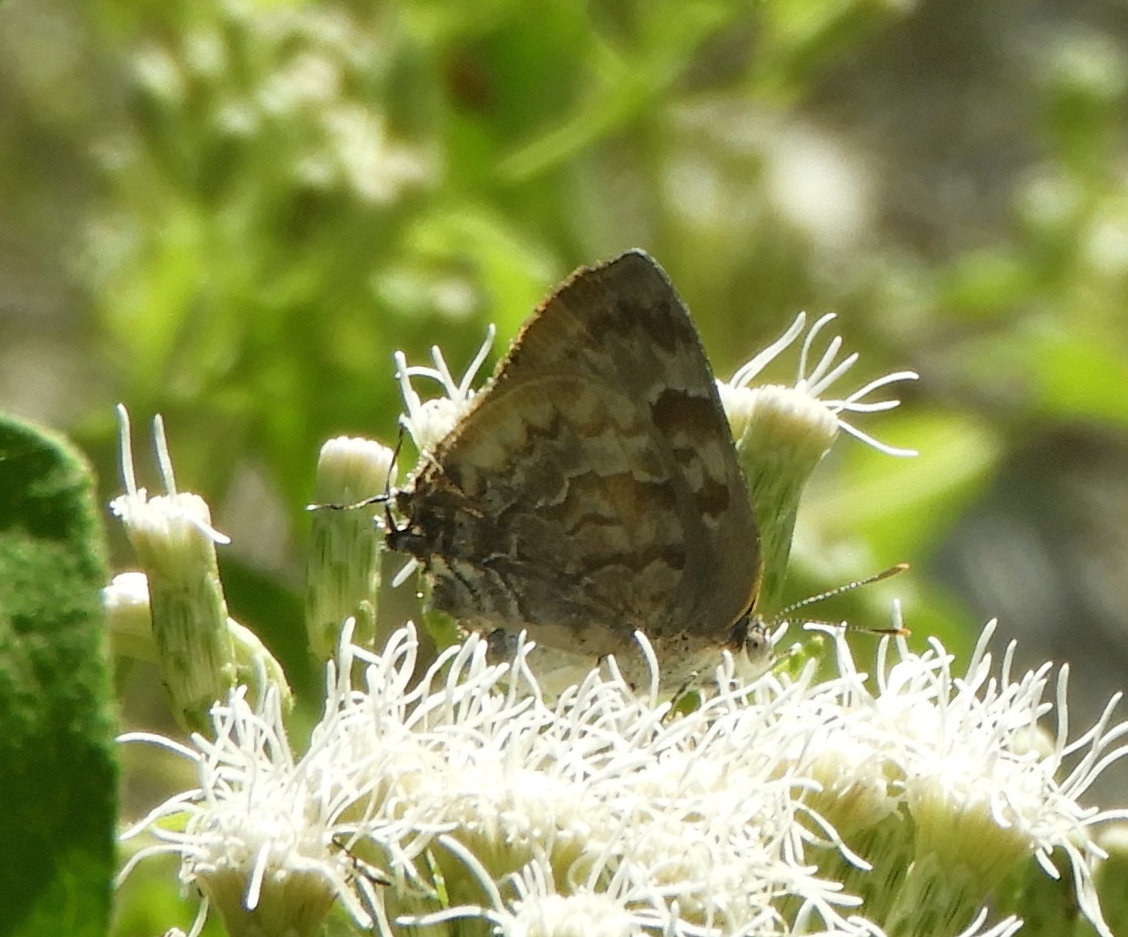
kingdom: Animalia
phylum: Arthropoda
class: Insecta
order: Lepidoptera
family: Lycaenidae
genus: Rekoa
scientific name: Rekoa palegon
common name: Gold-bordered hairstreak
